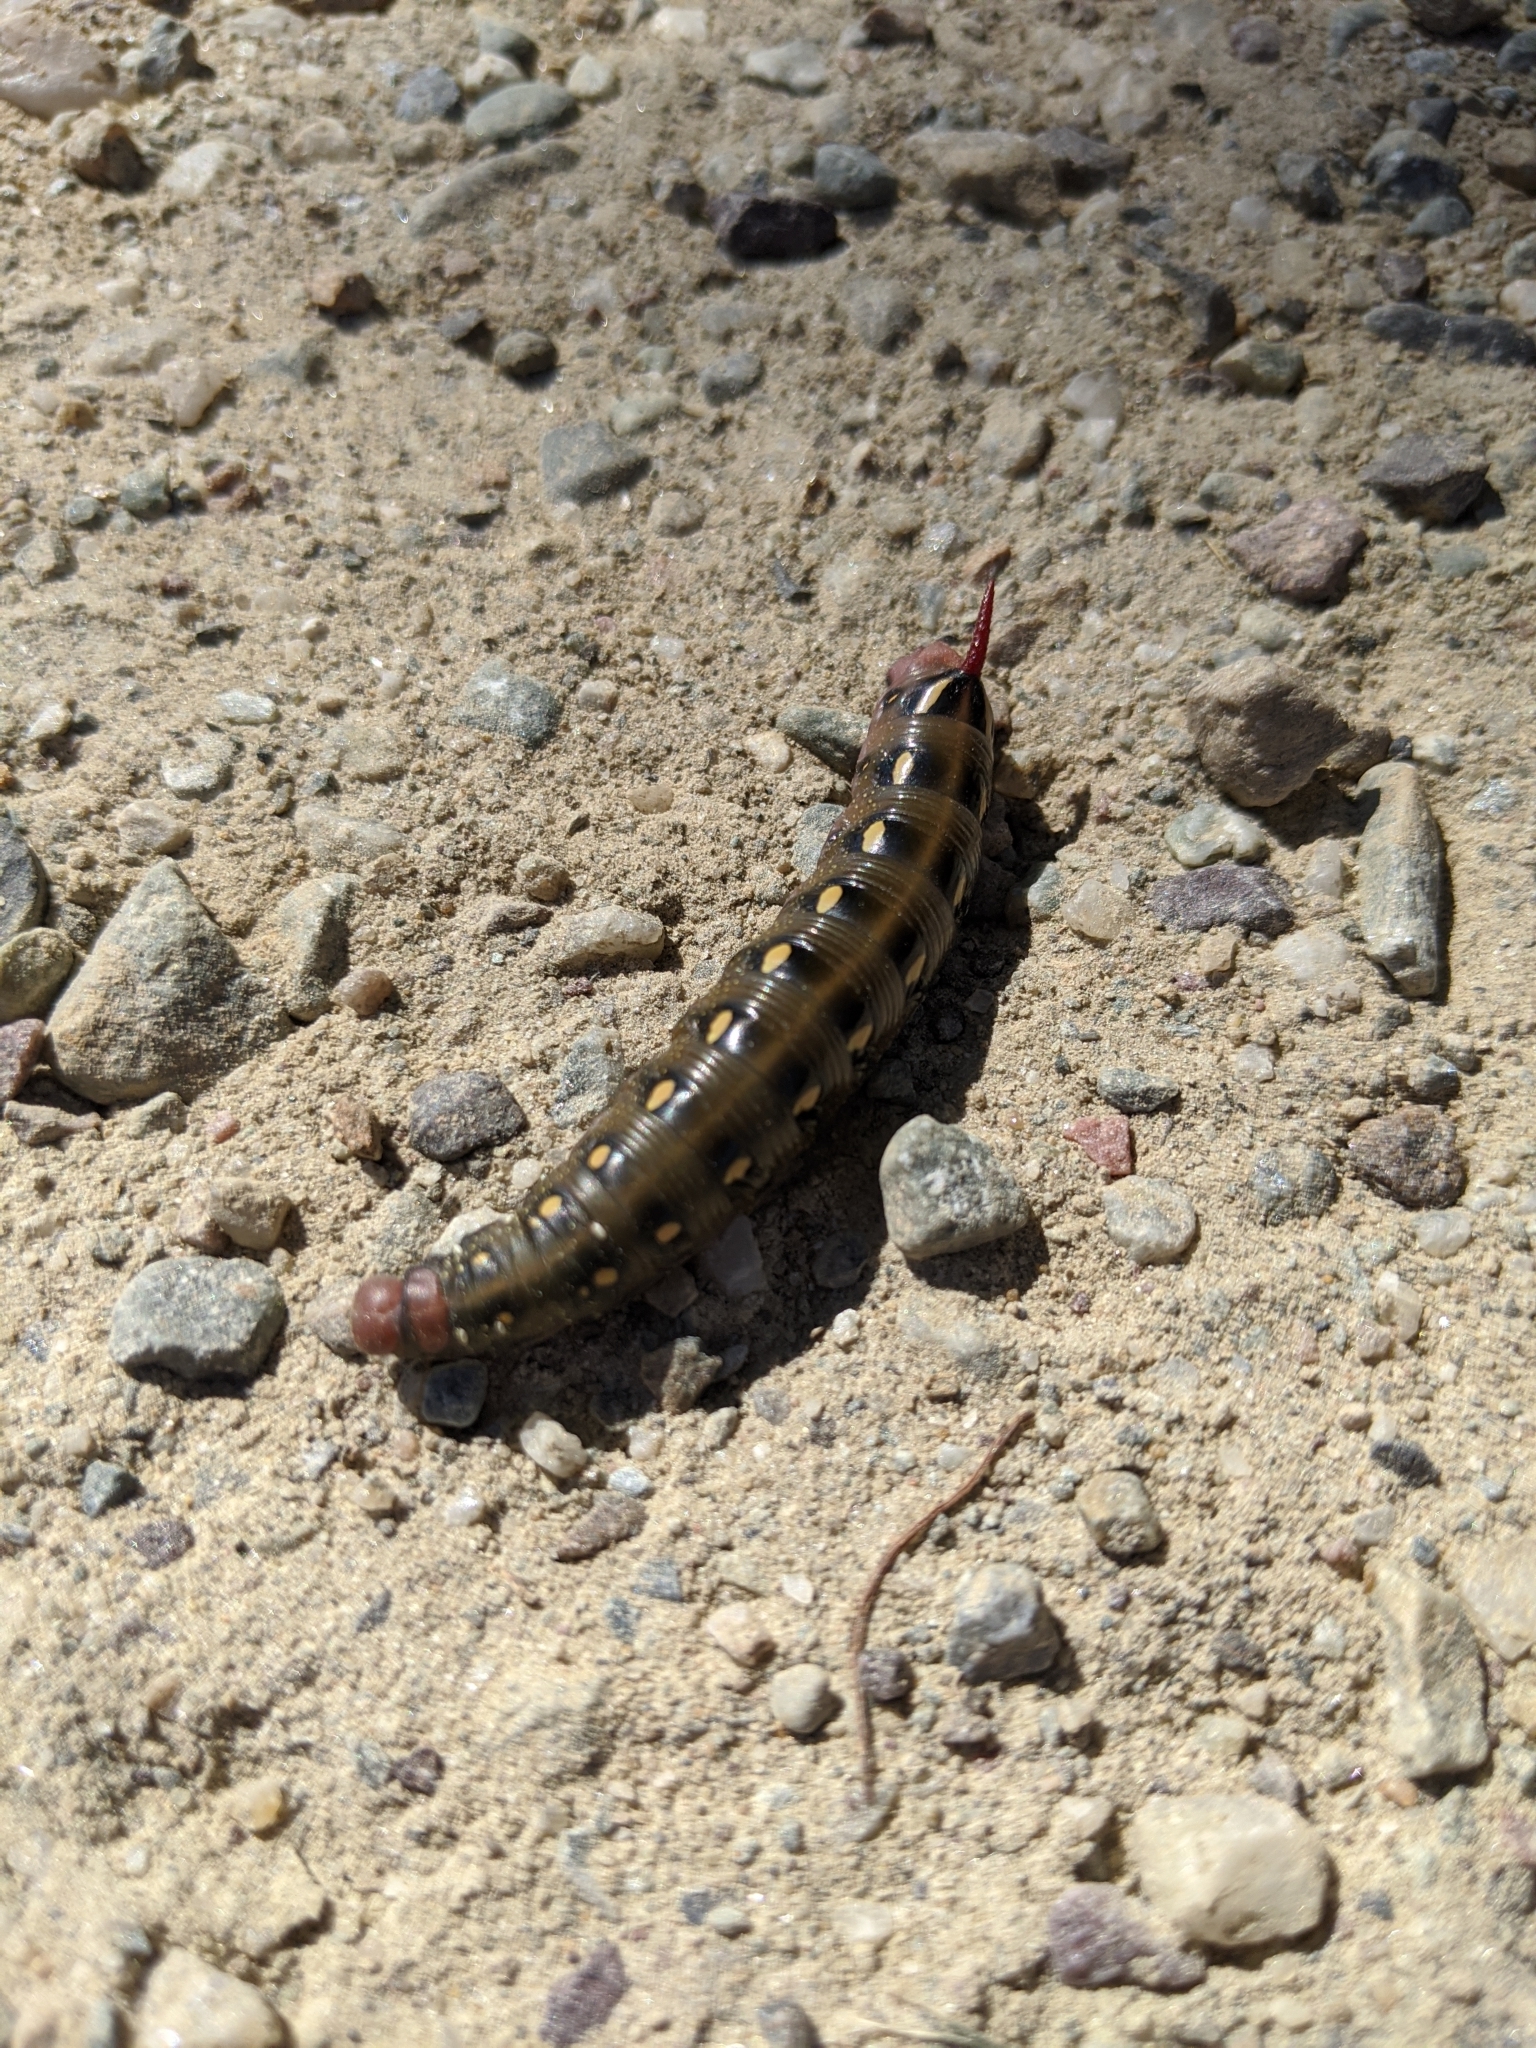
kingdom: Animalia
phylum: Arthropoda
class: Insecta
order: Lepidoptera
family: Sphingidae
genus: Hyles
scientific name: Hyles gallii
